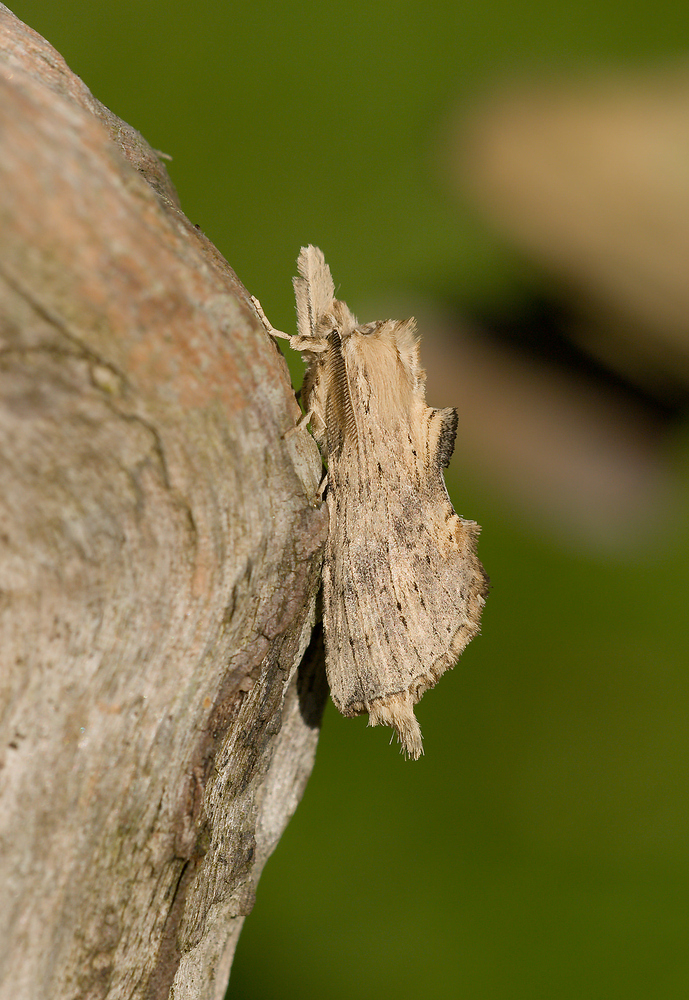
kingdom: Animalia
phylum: Arthropoda
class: Insecta
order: Lepidoptera
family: Notodontidae
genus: Pterostoma
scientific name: Pterostoma palpina
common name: Pale prominent
